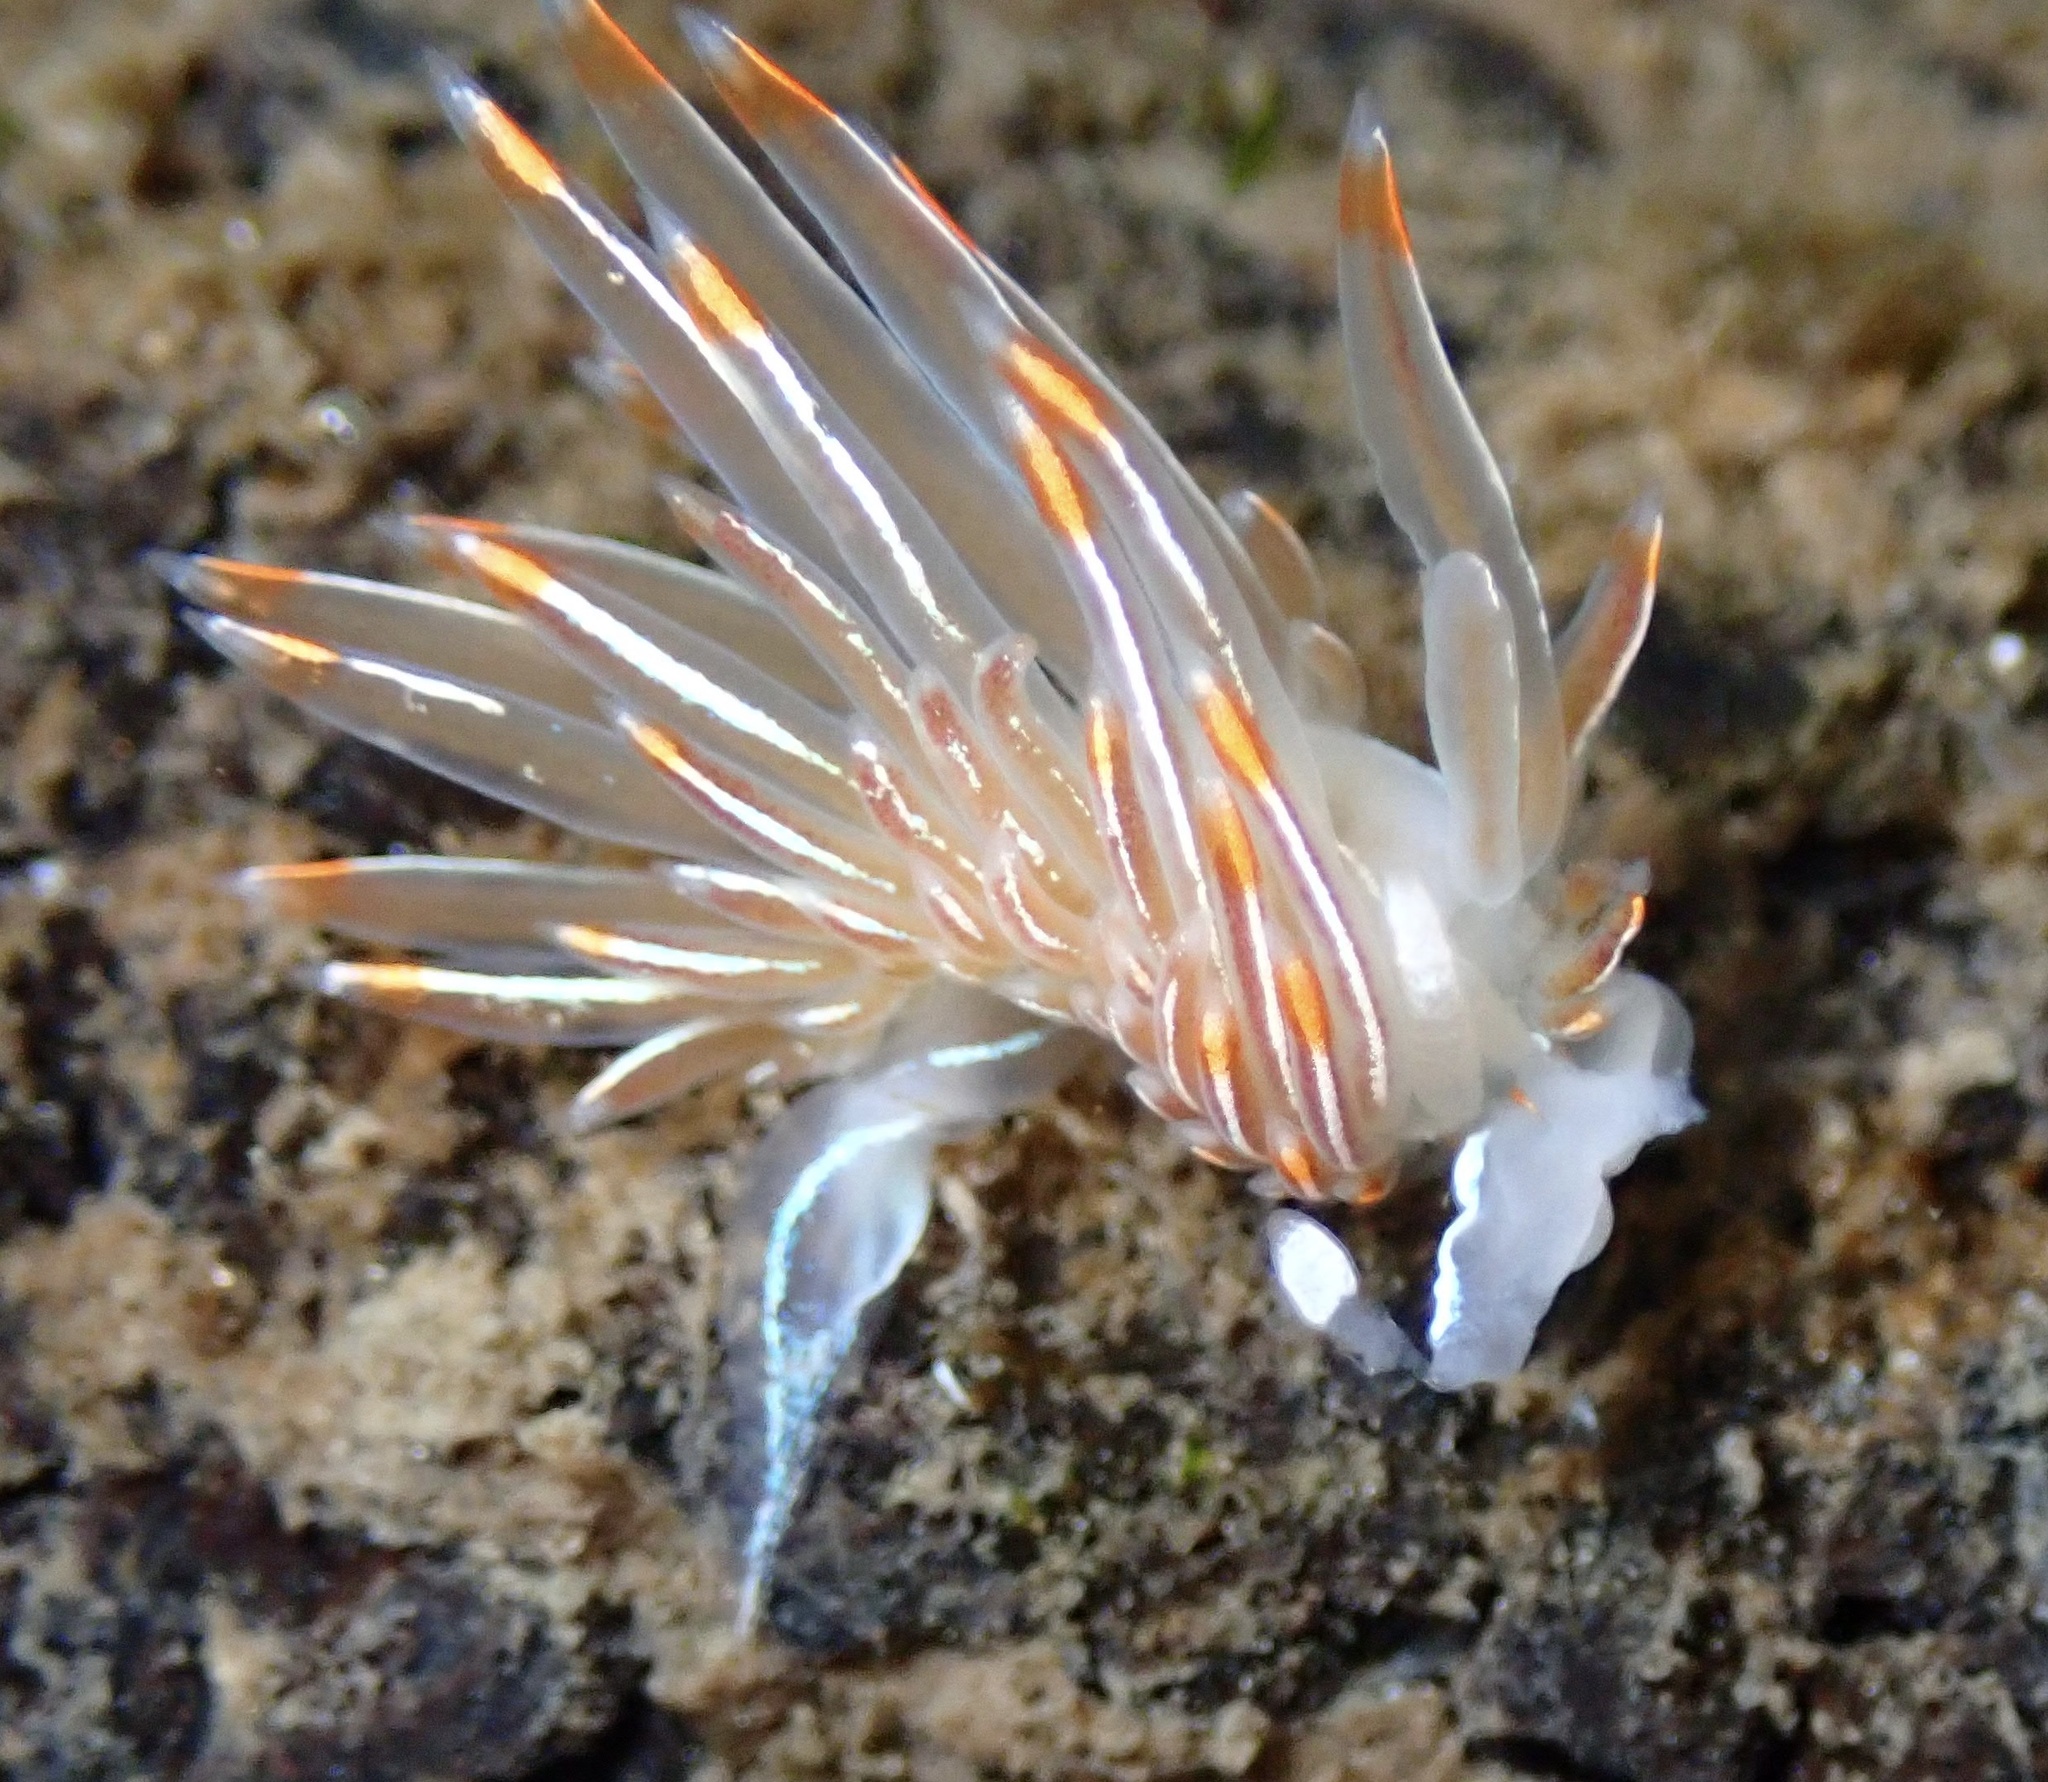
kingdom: Animalia
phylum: Mollusca
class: Gastropoda
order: Nudibranchia
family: Myrrhinidae
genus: Hermissenda
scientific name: Hermissenda crassicornis
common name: Hermissenda
